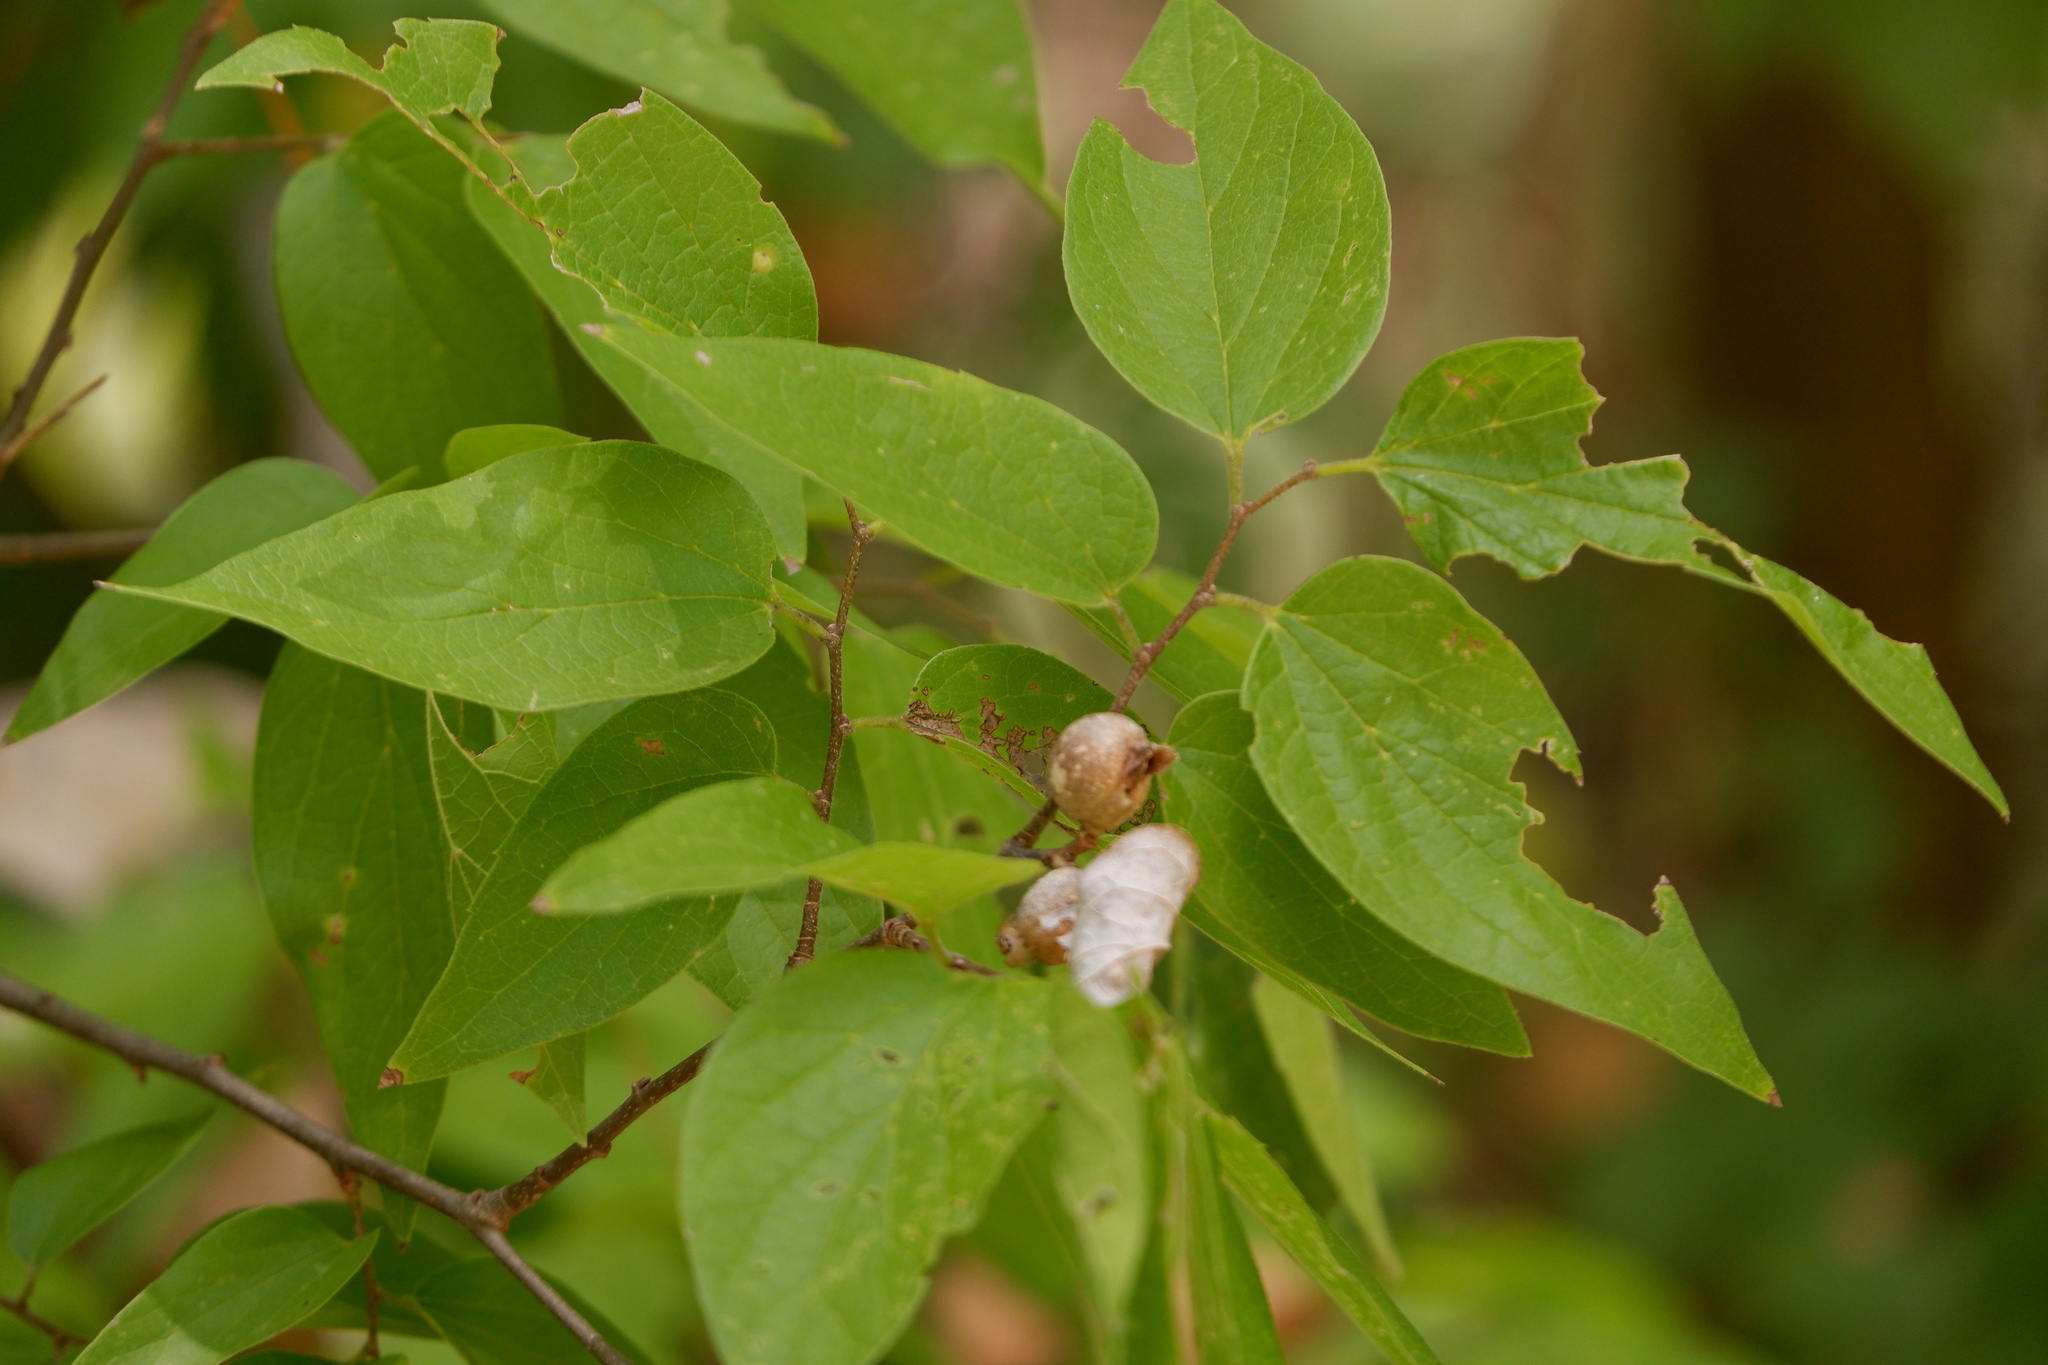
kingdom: Animalia
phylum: Arthropoda
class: Insecta
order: Hemiptera
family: Aphalaridae
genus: Pachypsylla
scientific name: Pachypsylla venusta
